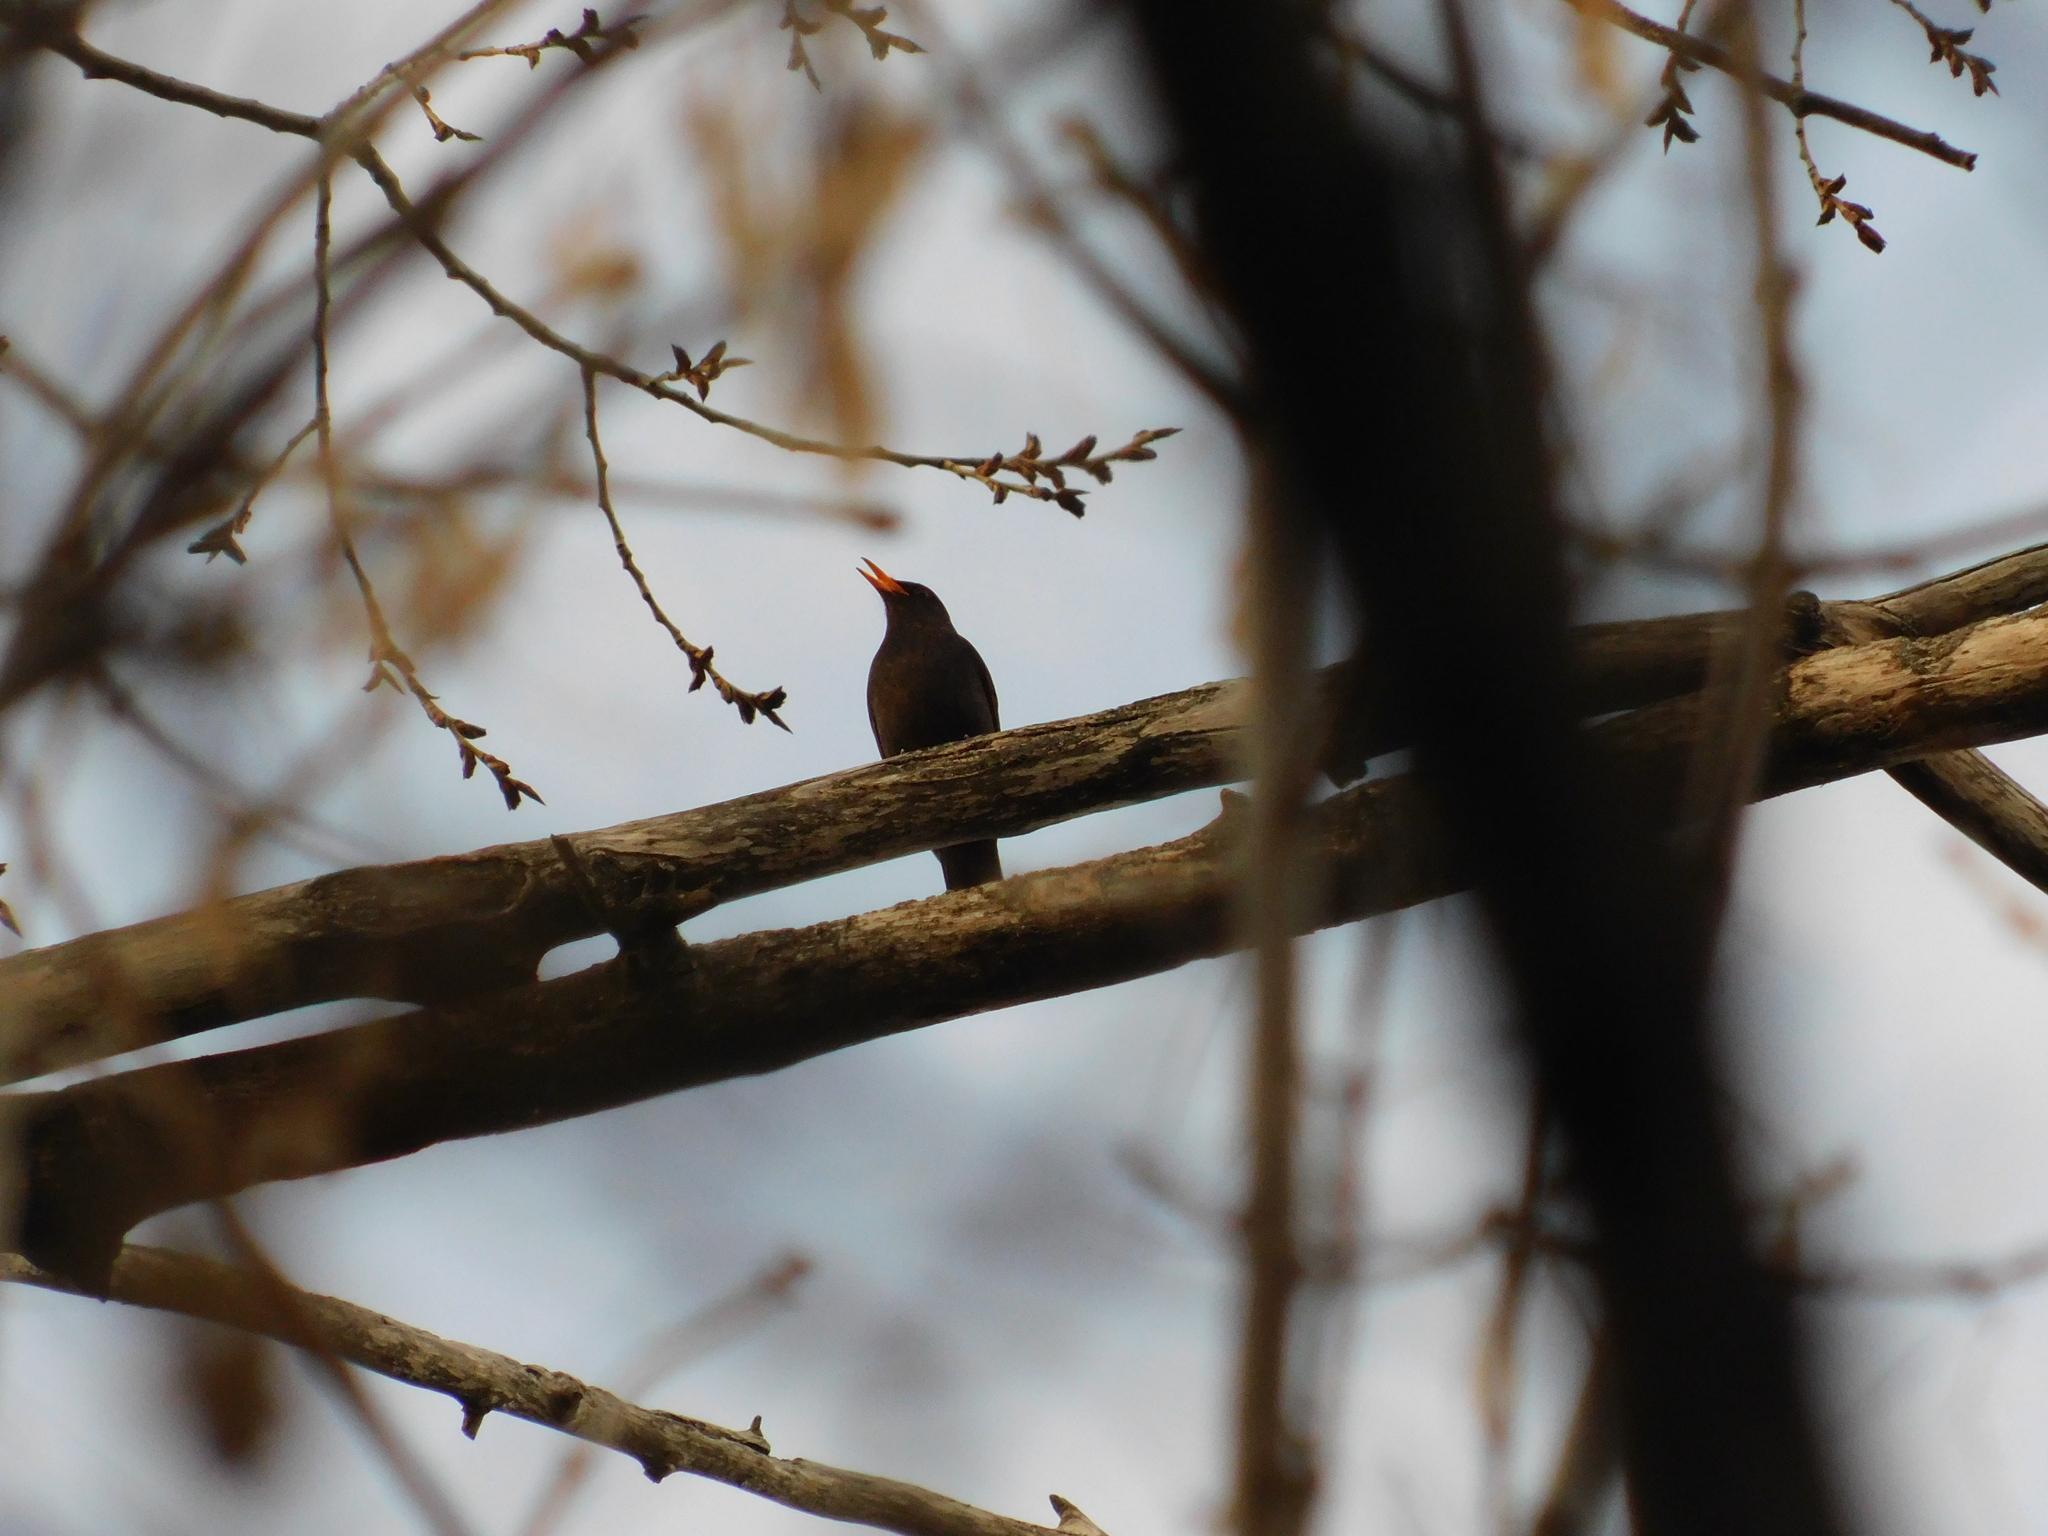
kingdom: Animalia
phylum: Chordata
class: Aves
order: Passeriformes
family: Turdidae
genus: Turdus
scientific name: Turdus merula
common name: Common blackbird
